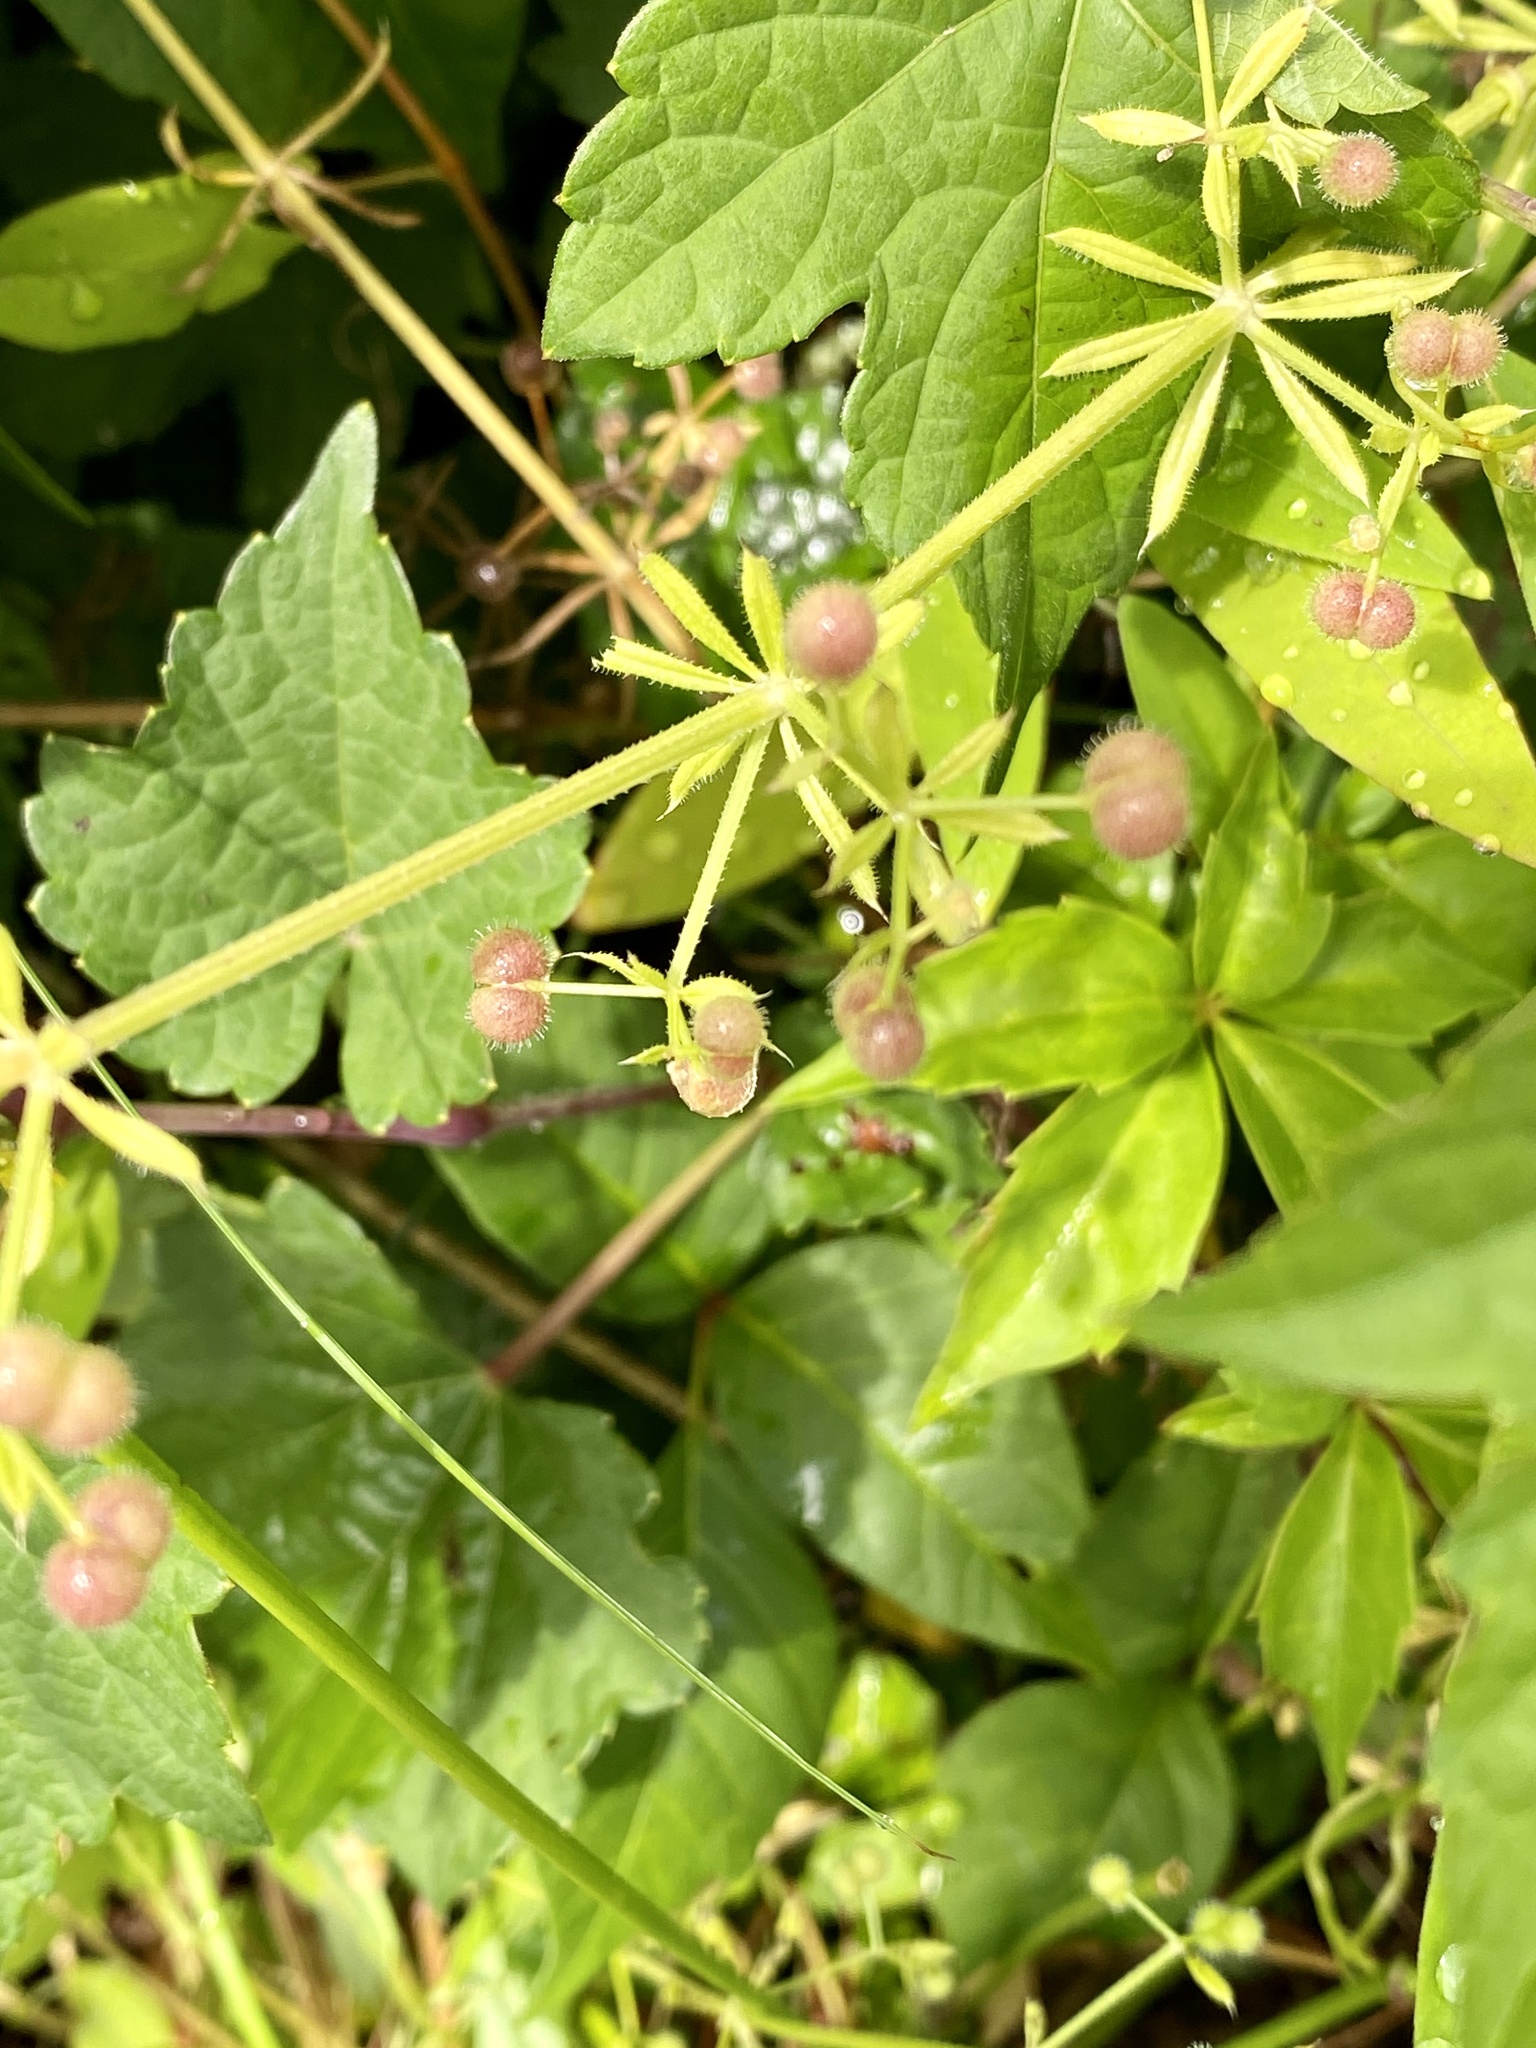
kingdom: Plantae
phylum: Tracheophyta
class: Magnoliopsida
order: Gentianales
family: Rubiaceae
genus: Galium
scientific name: Galium aparine
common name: Cleavers
